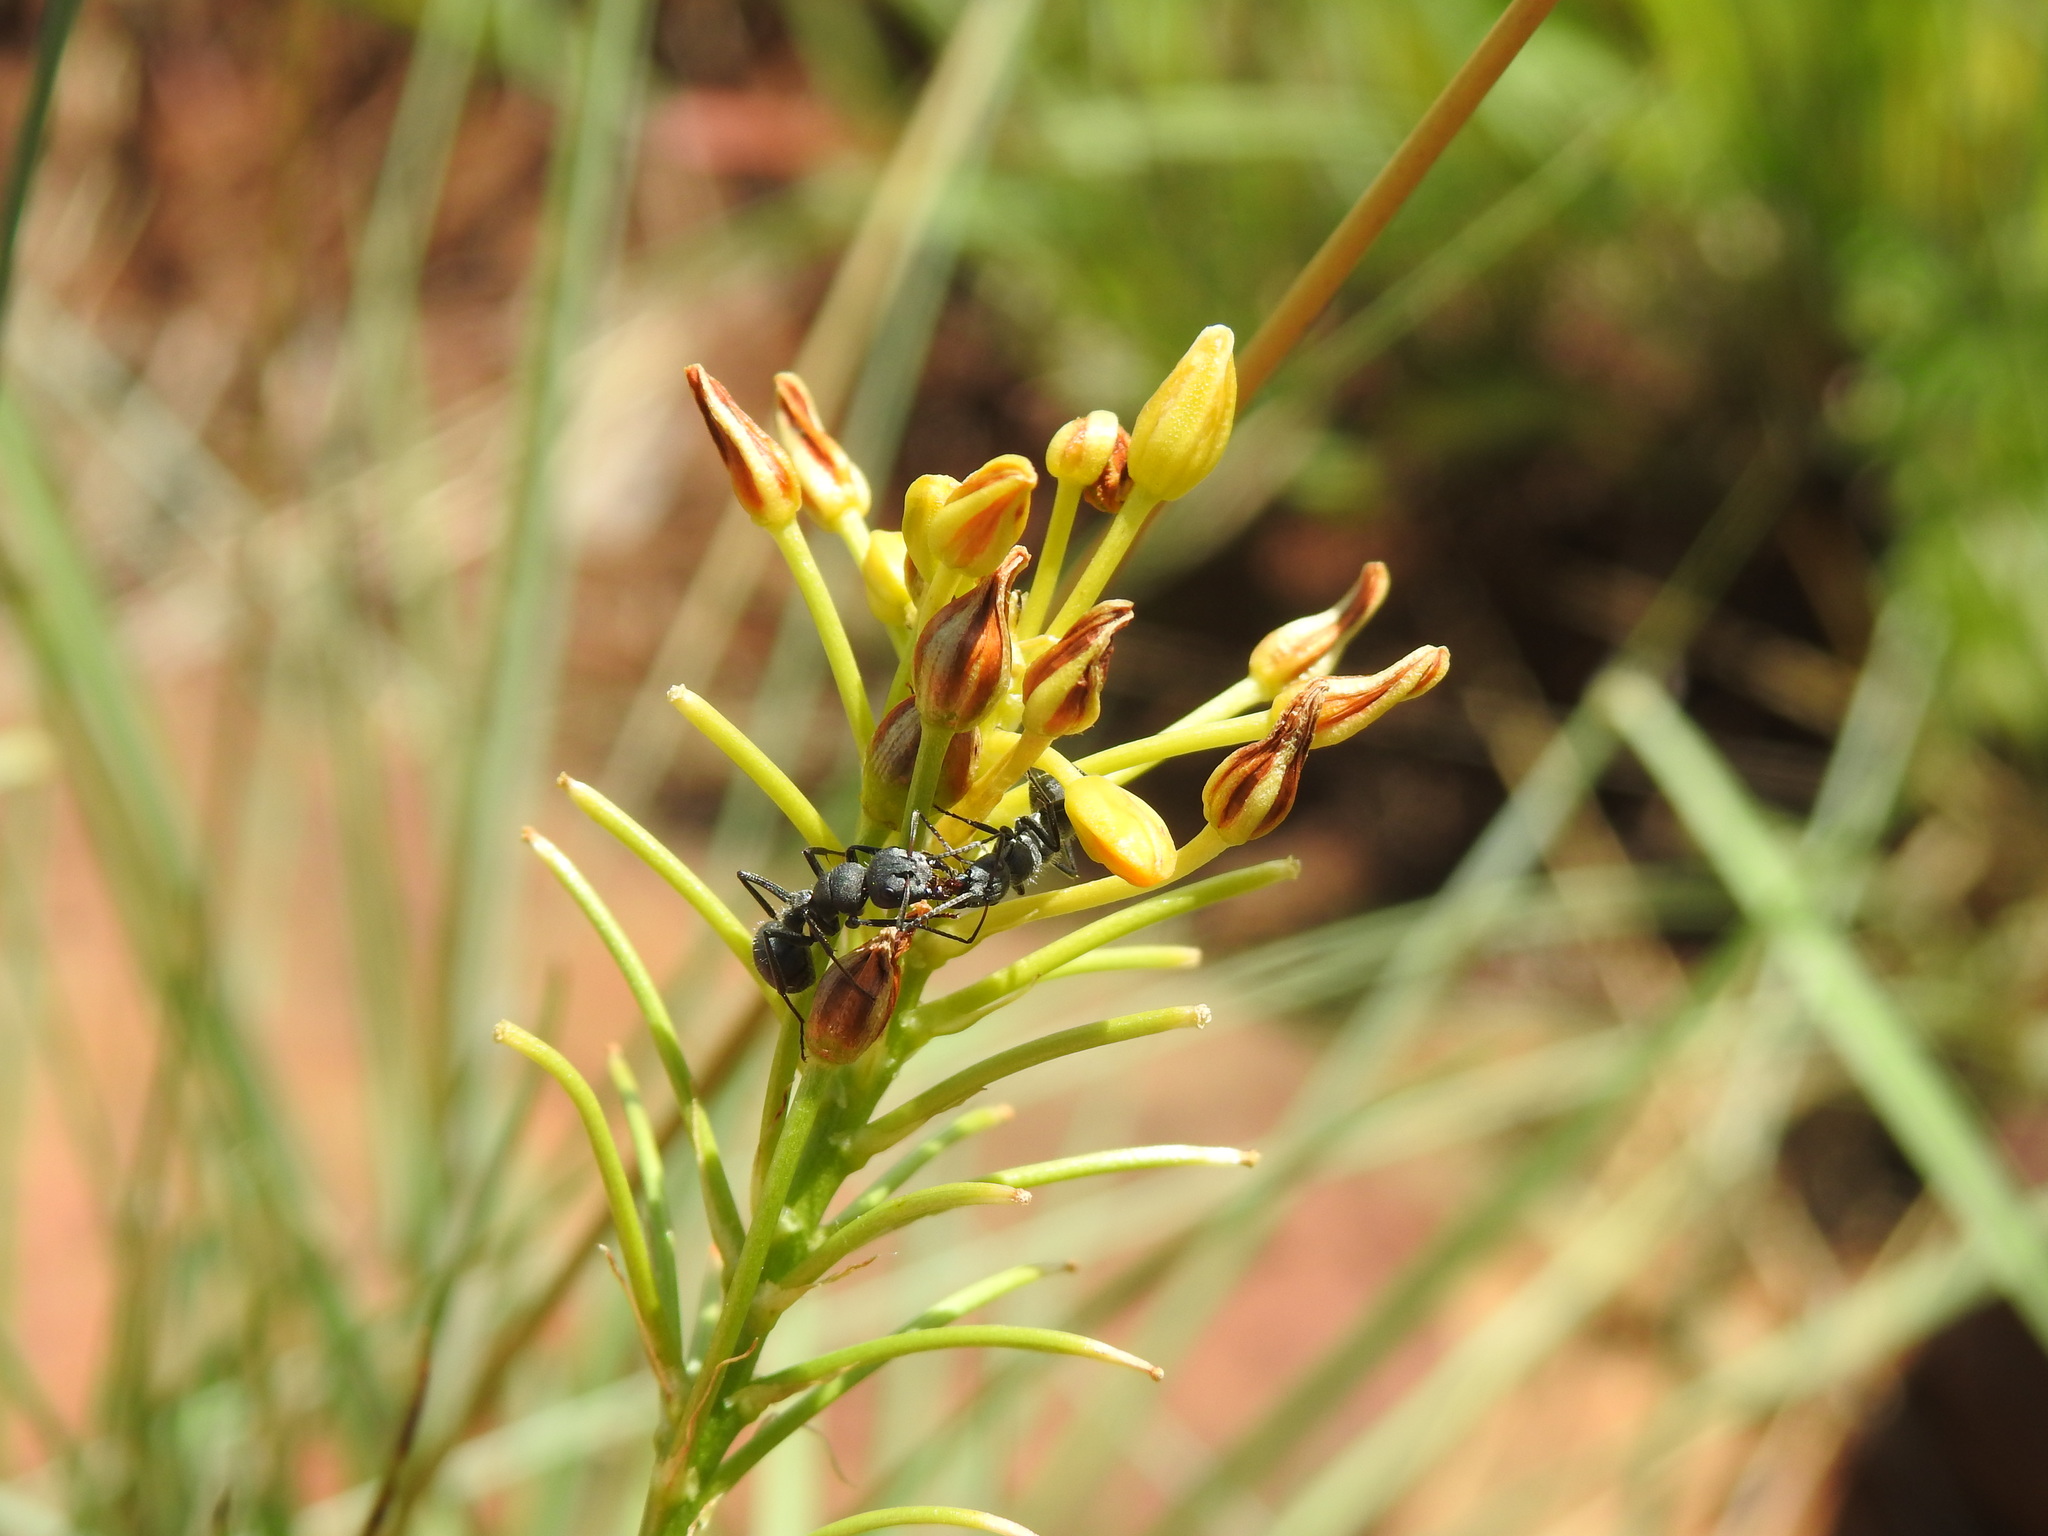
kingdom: Animalia
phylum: Arthropoda
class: Insecta
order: Hymenoptera
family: Formicidae
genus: Camponotus
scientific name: Camponotus cubangensis
